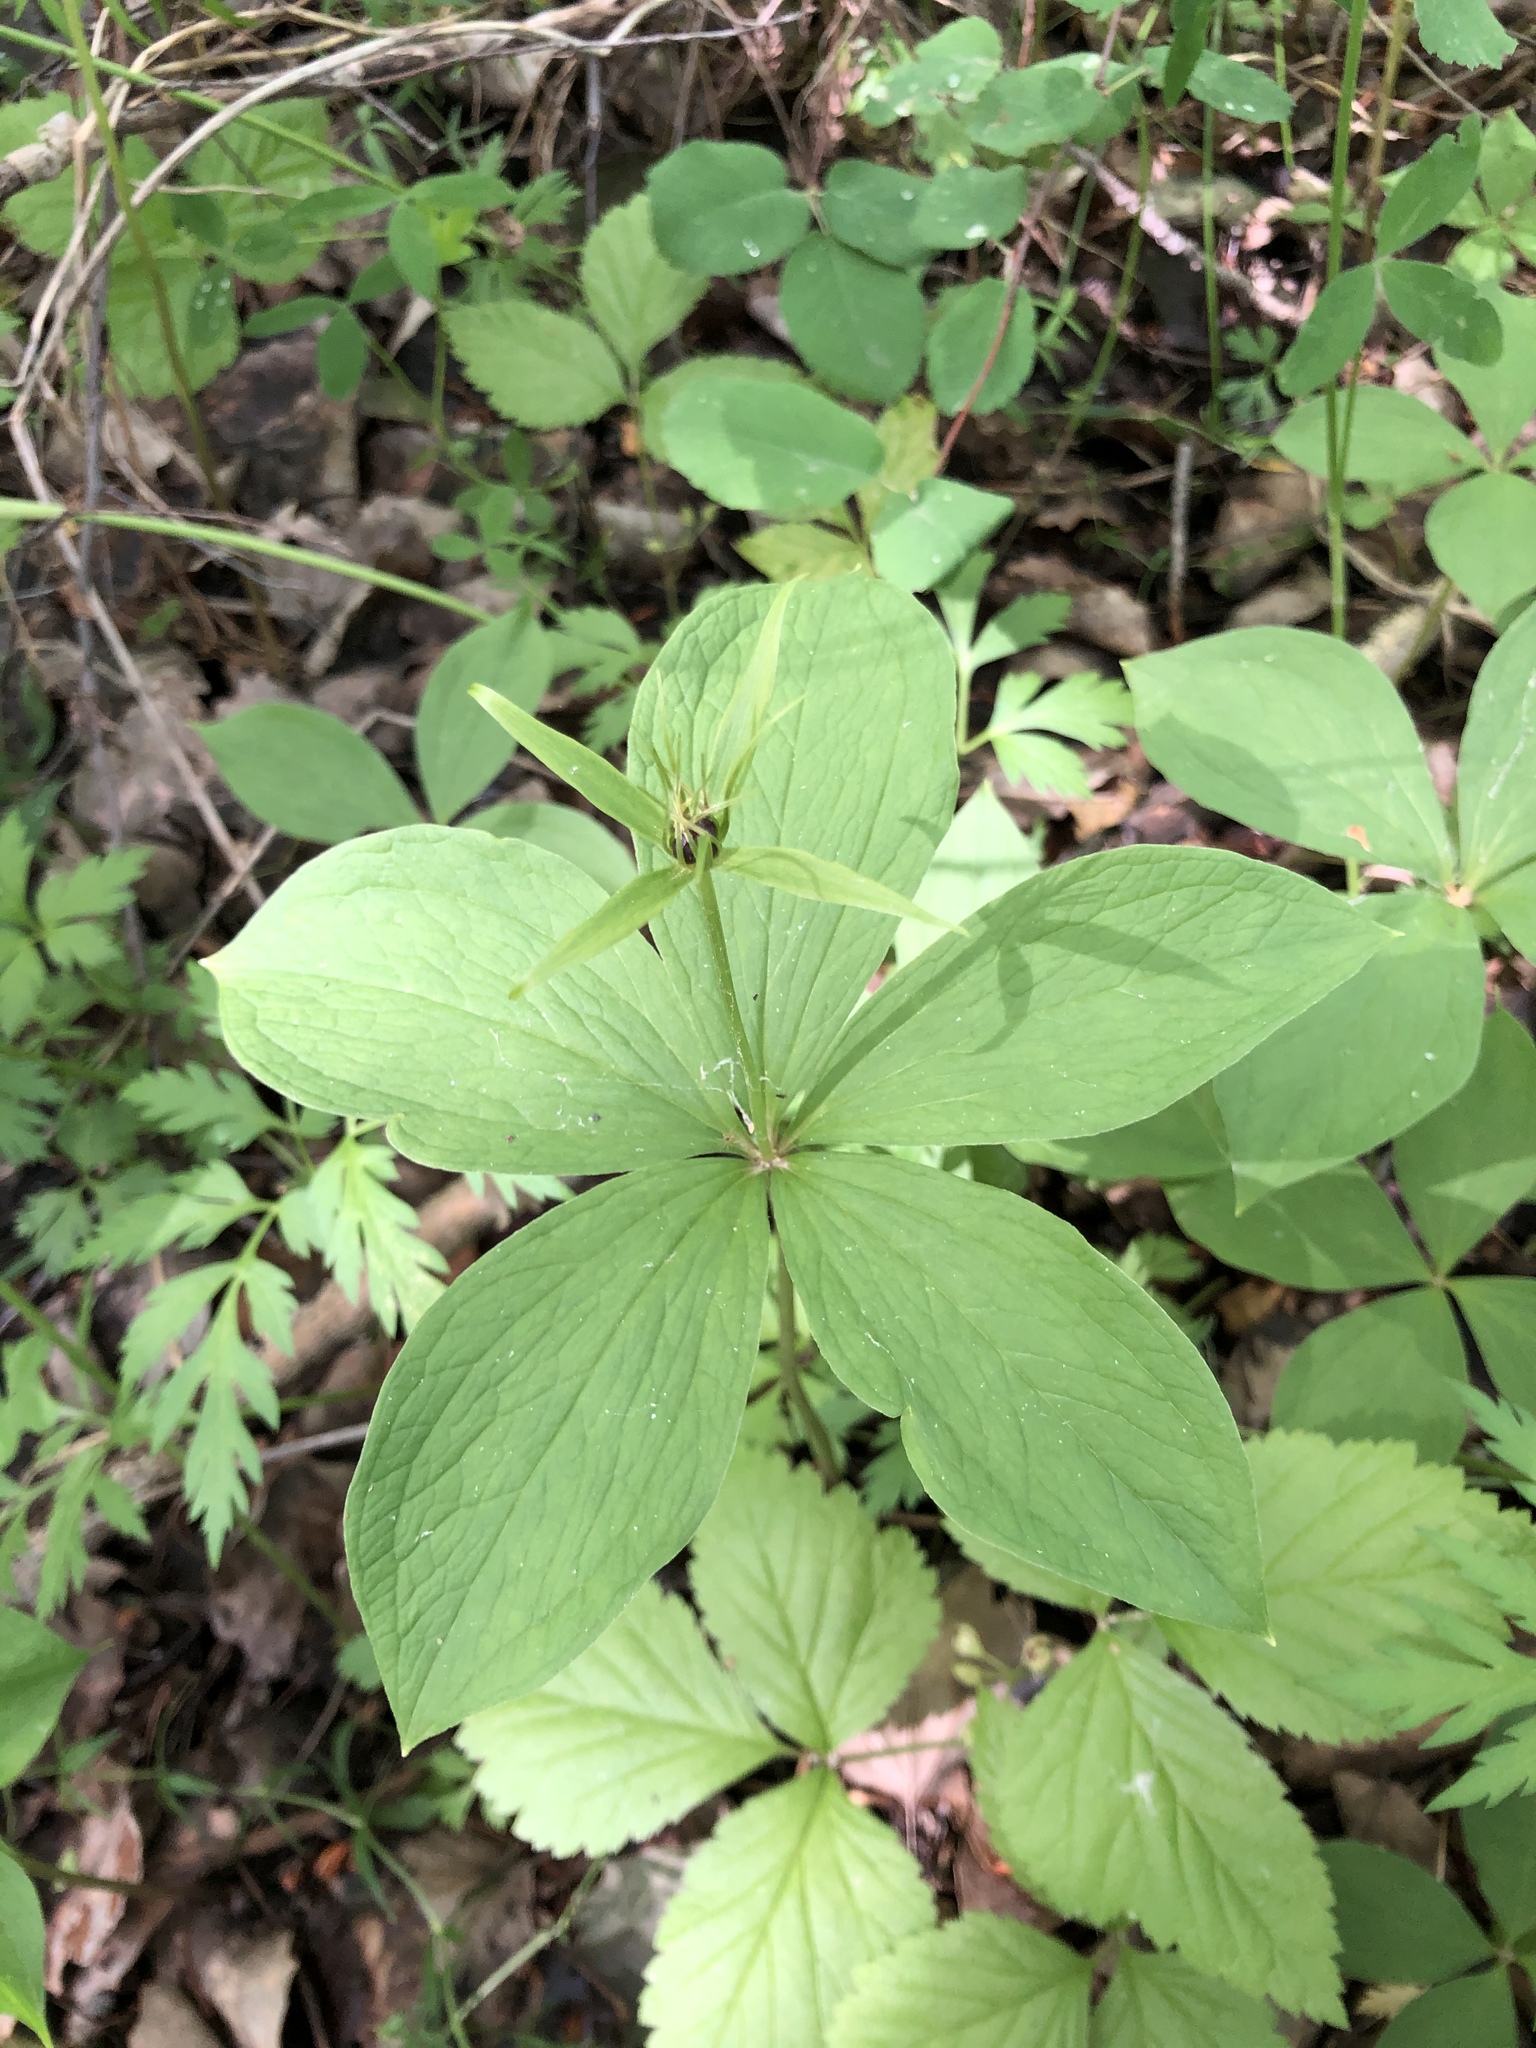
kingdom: Plantae
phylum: Tracheophyta
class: Liliopsida
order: Liliales
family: Melanthiaceae
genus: Paris
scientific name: Paris quadrifolia
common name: Herb-paris
